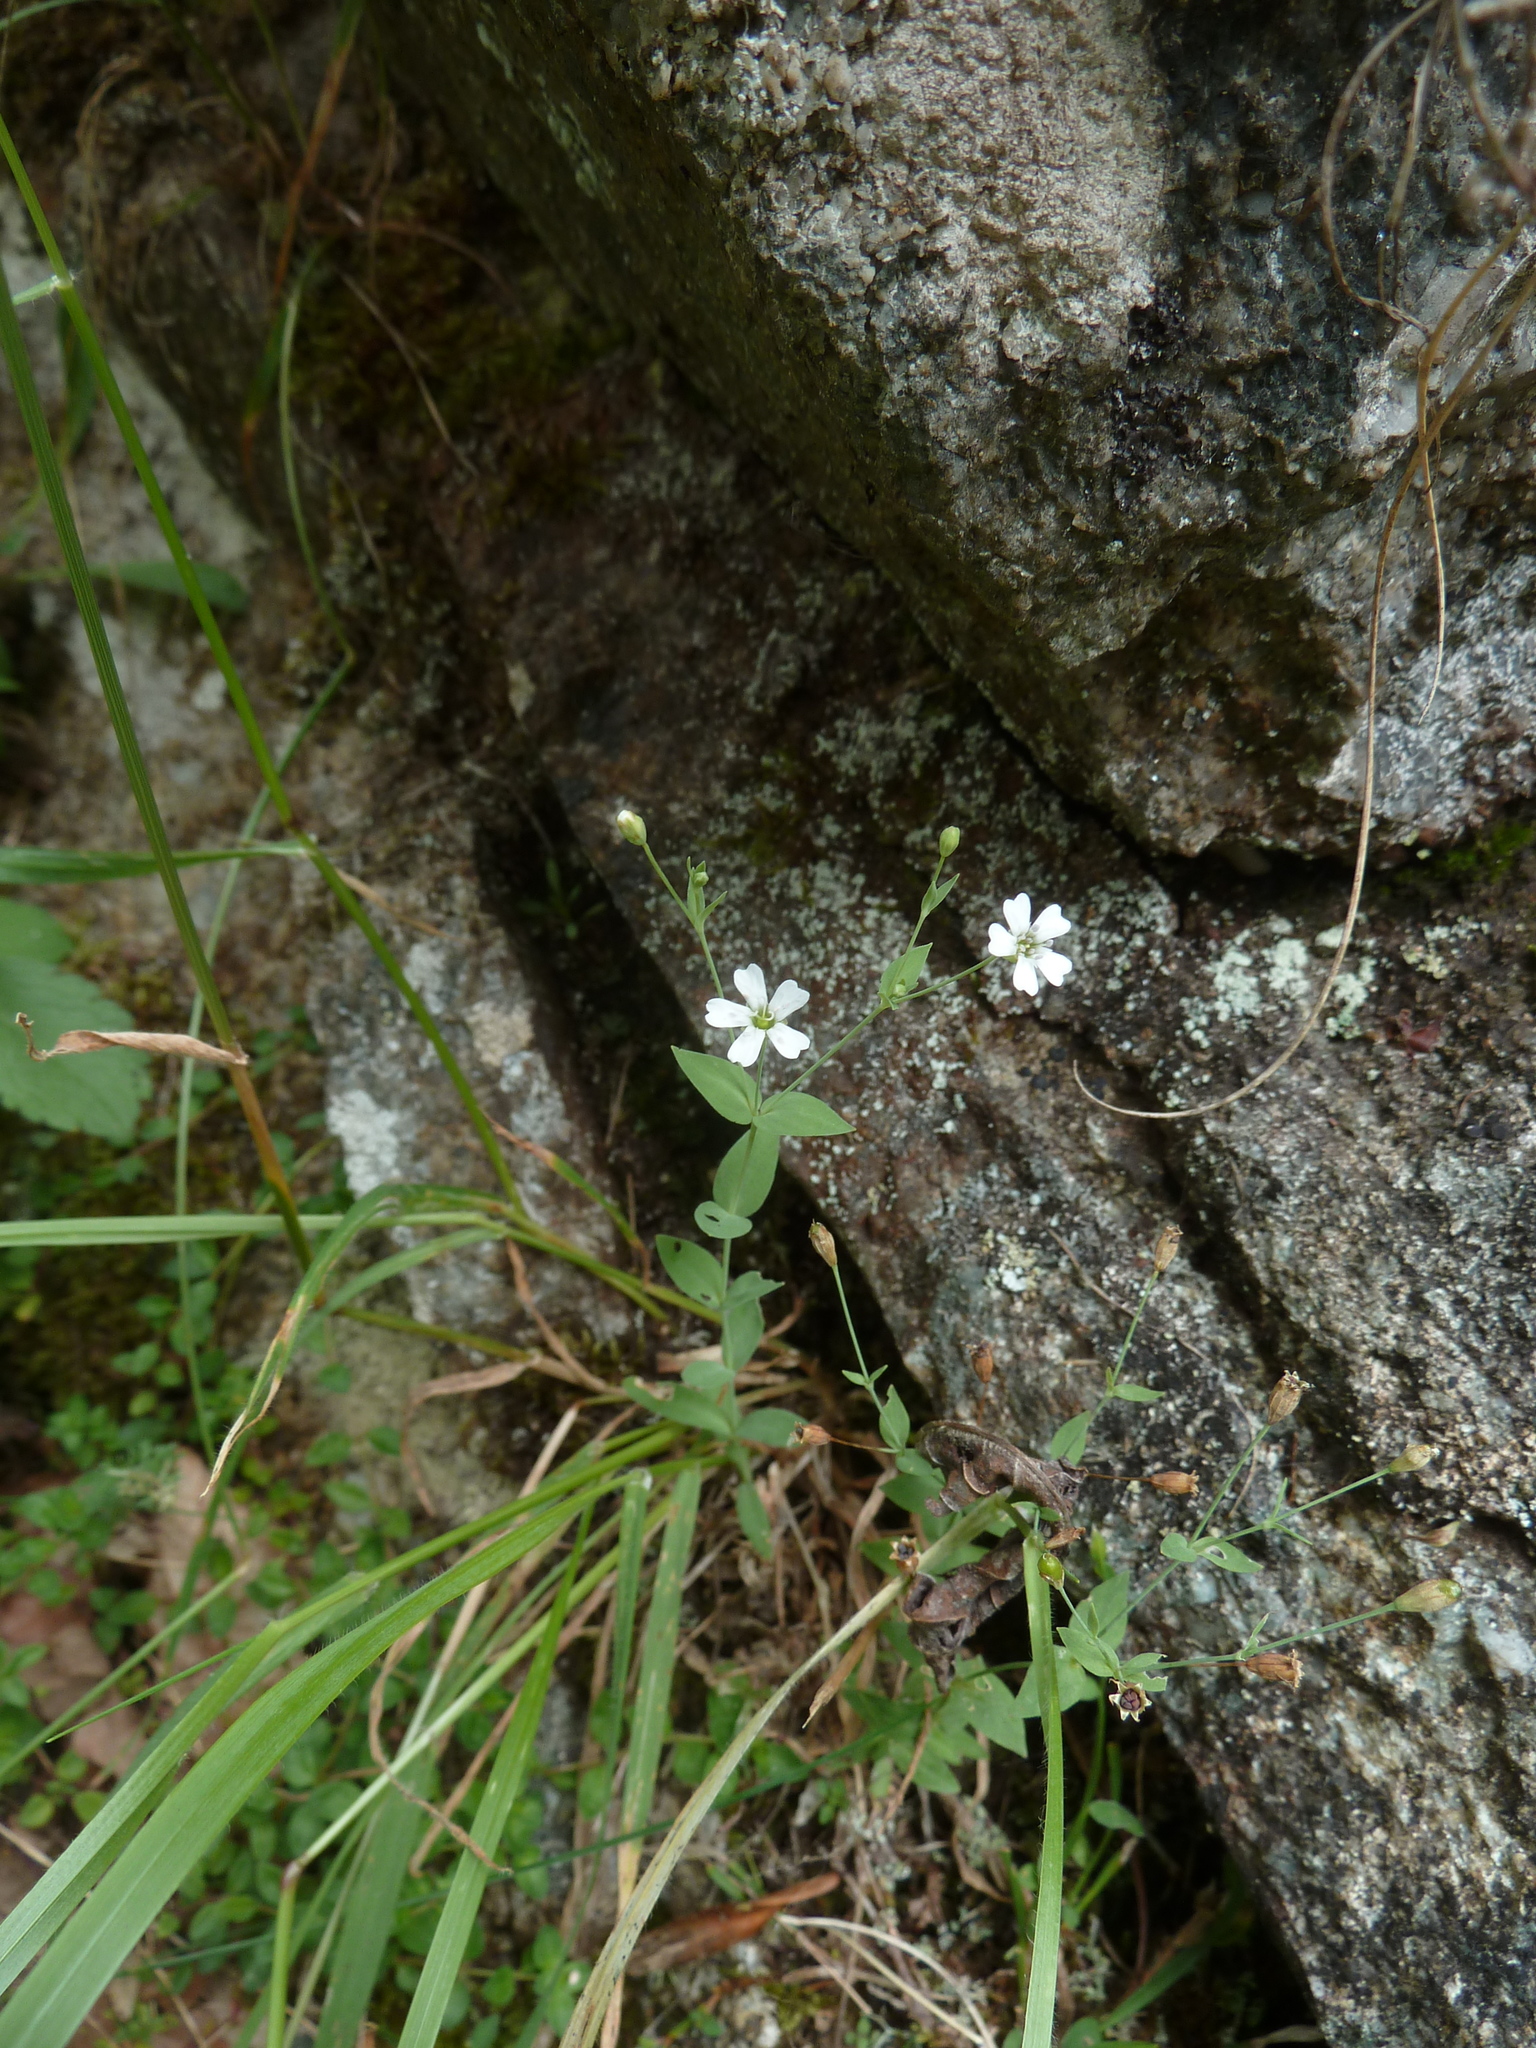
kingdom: Plantae
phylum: Tracheophyta
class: Magnoliopsida
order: Caryophyllales
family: Caryophyllaceae
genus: Atocion
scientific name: Atocion rupestre
